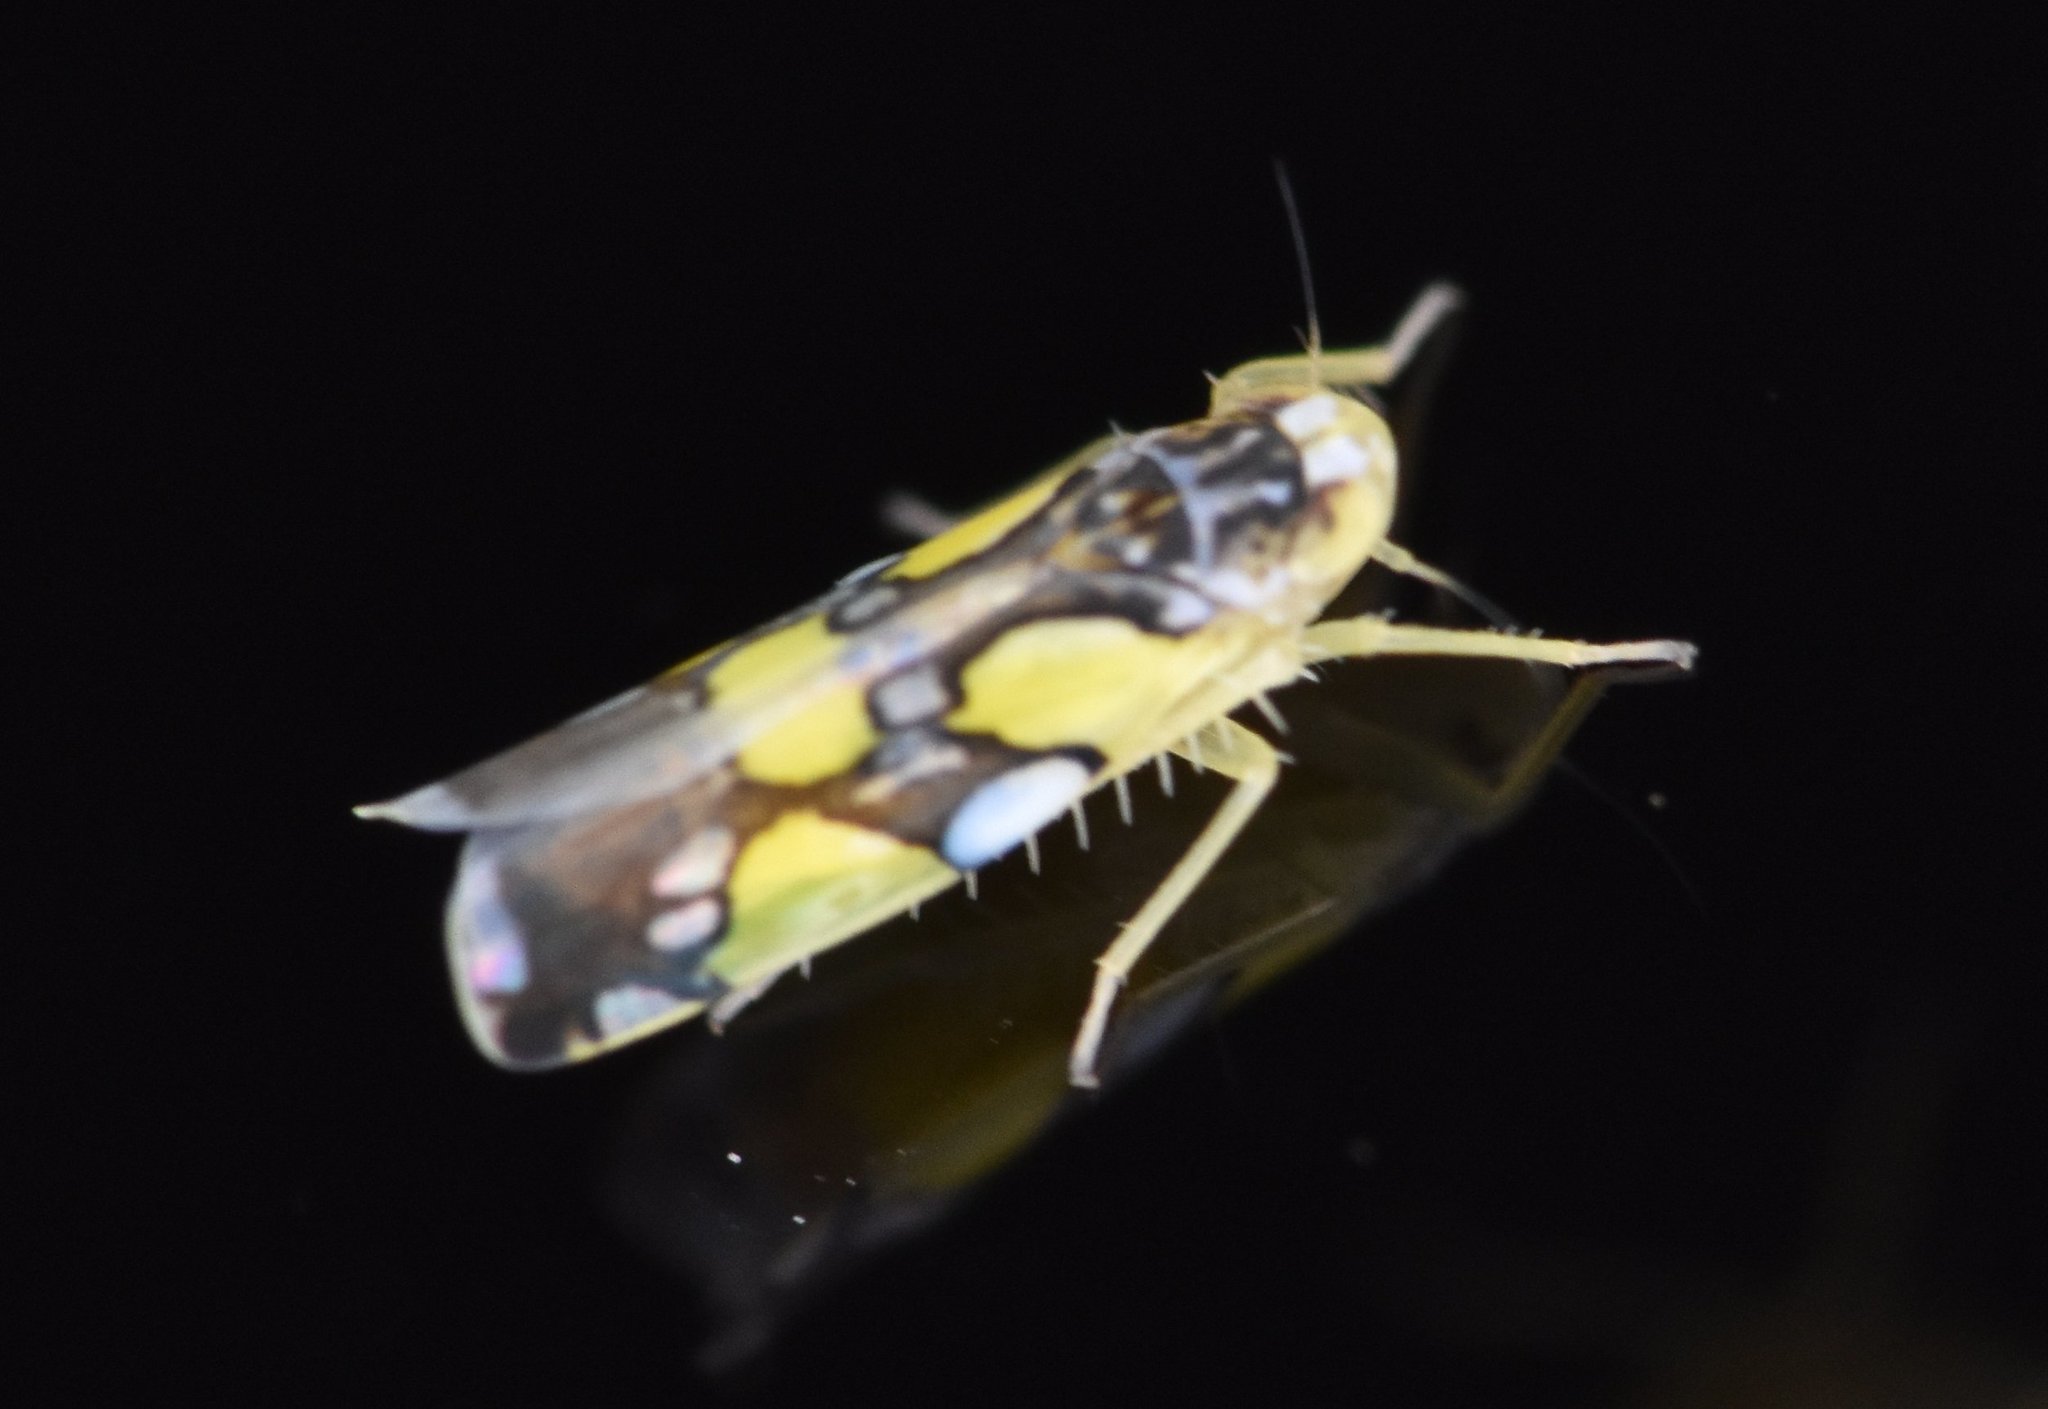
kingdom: Animalia
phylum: Arthropoda
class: Insecta
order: Hemiptera
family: Cicadellidae
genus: Protalebrella
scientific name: Protalebrella brasiliensis
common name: Brasilian leafhopper
